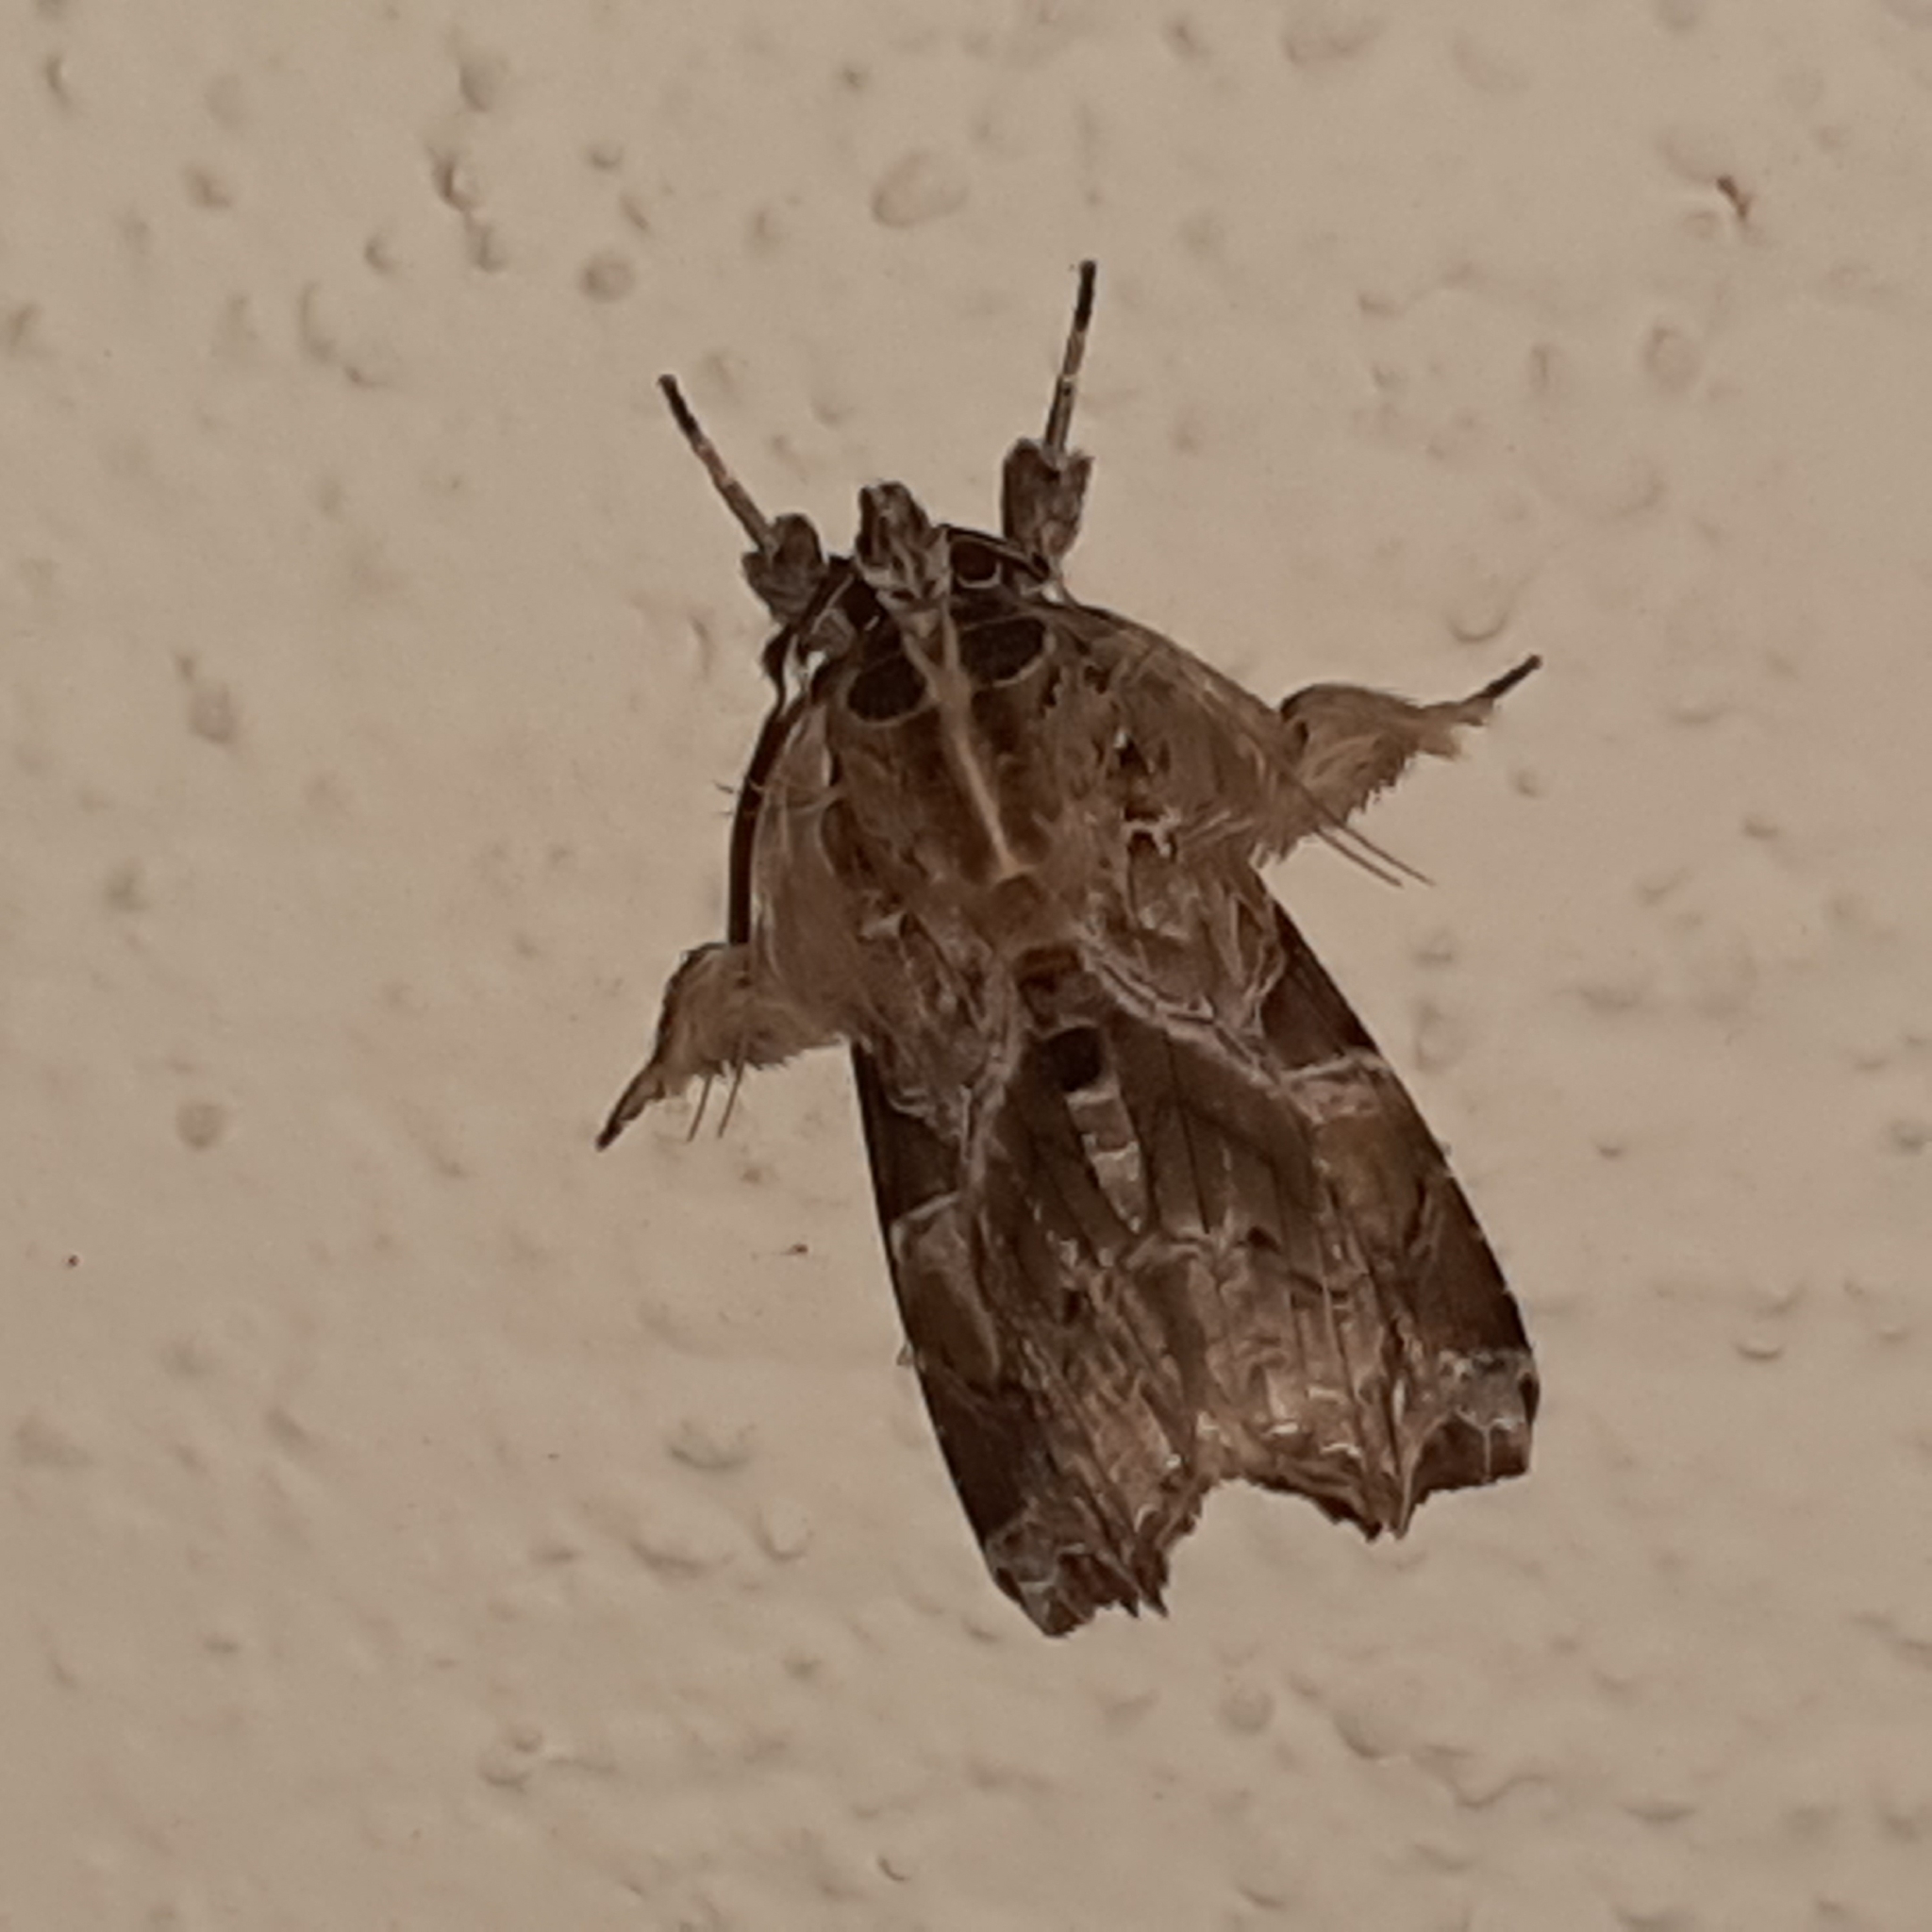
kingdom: Animalia
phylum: Arthropoda
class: Insecta
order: Lepidoptera
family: Noctuidae
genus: Callopistria
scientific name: Callopistria floridensis
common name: Florida fern moth
